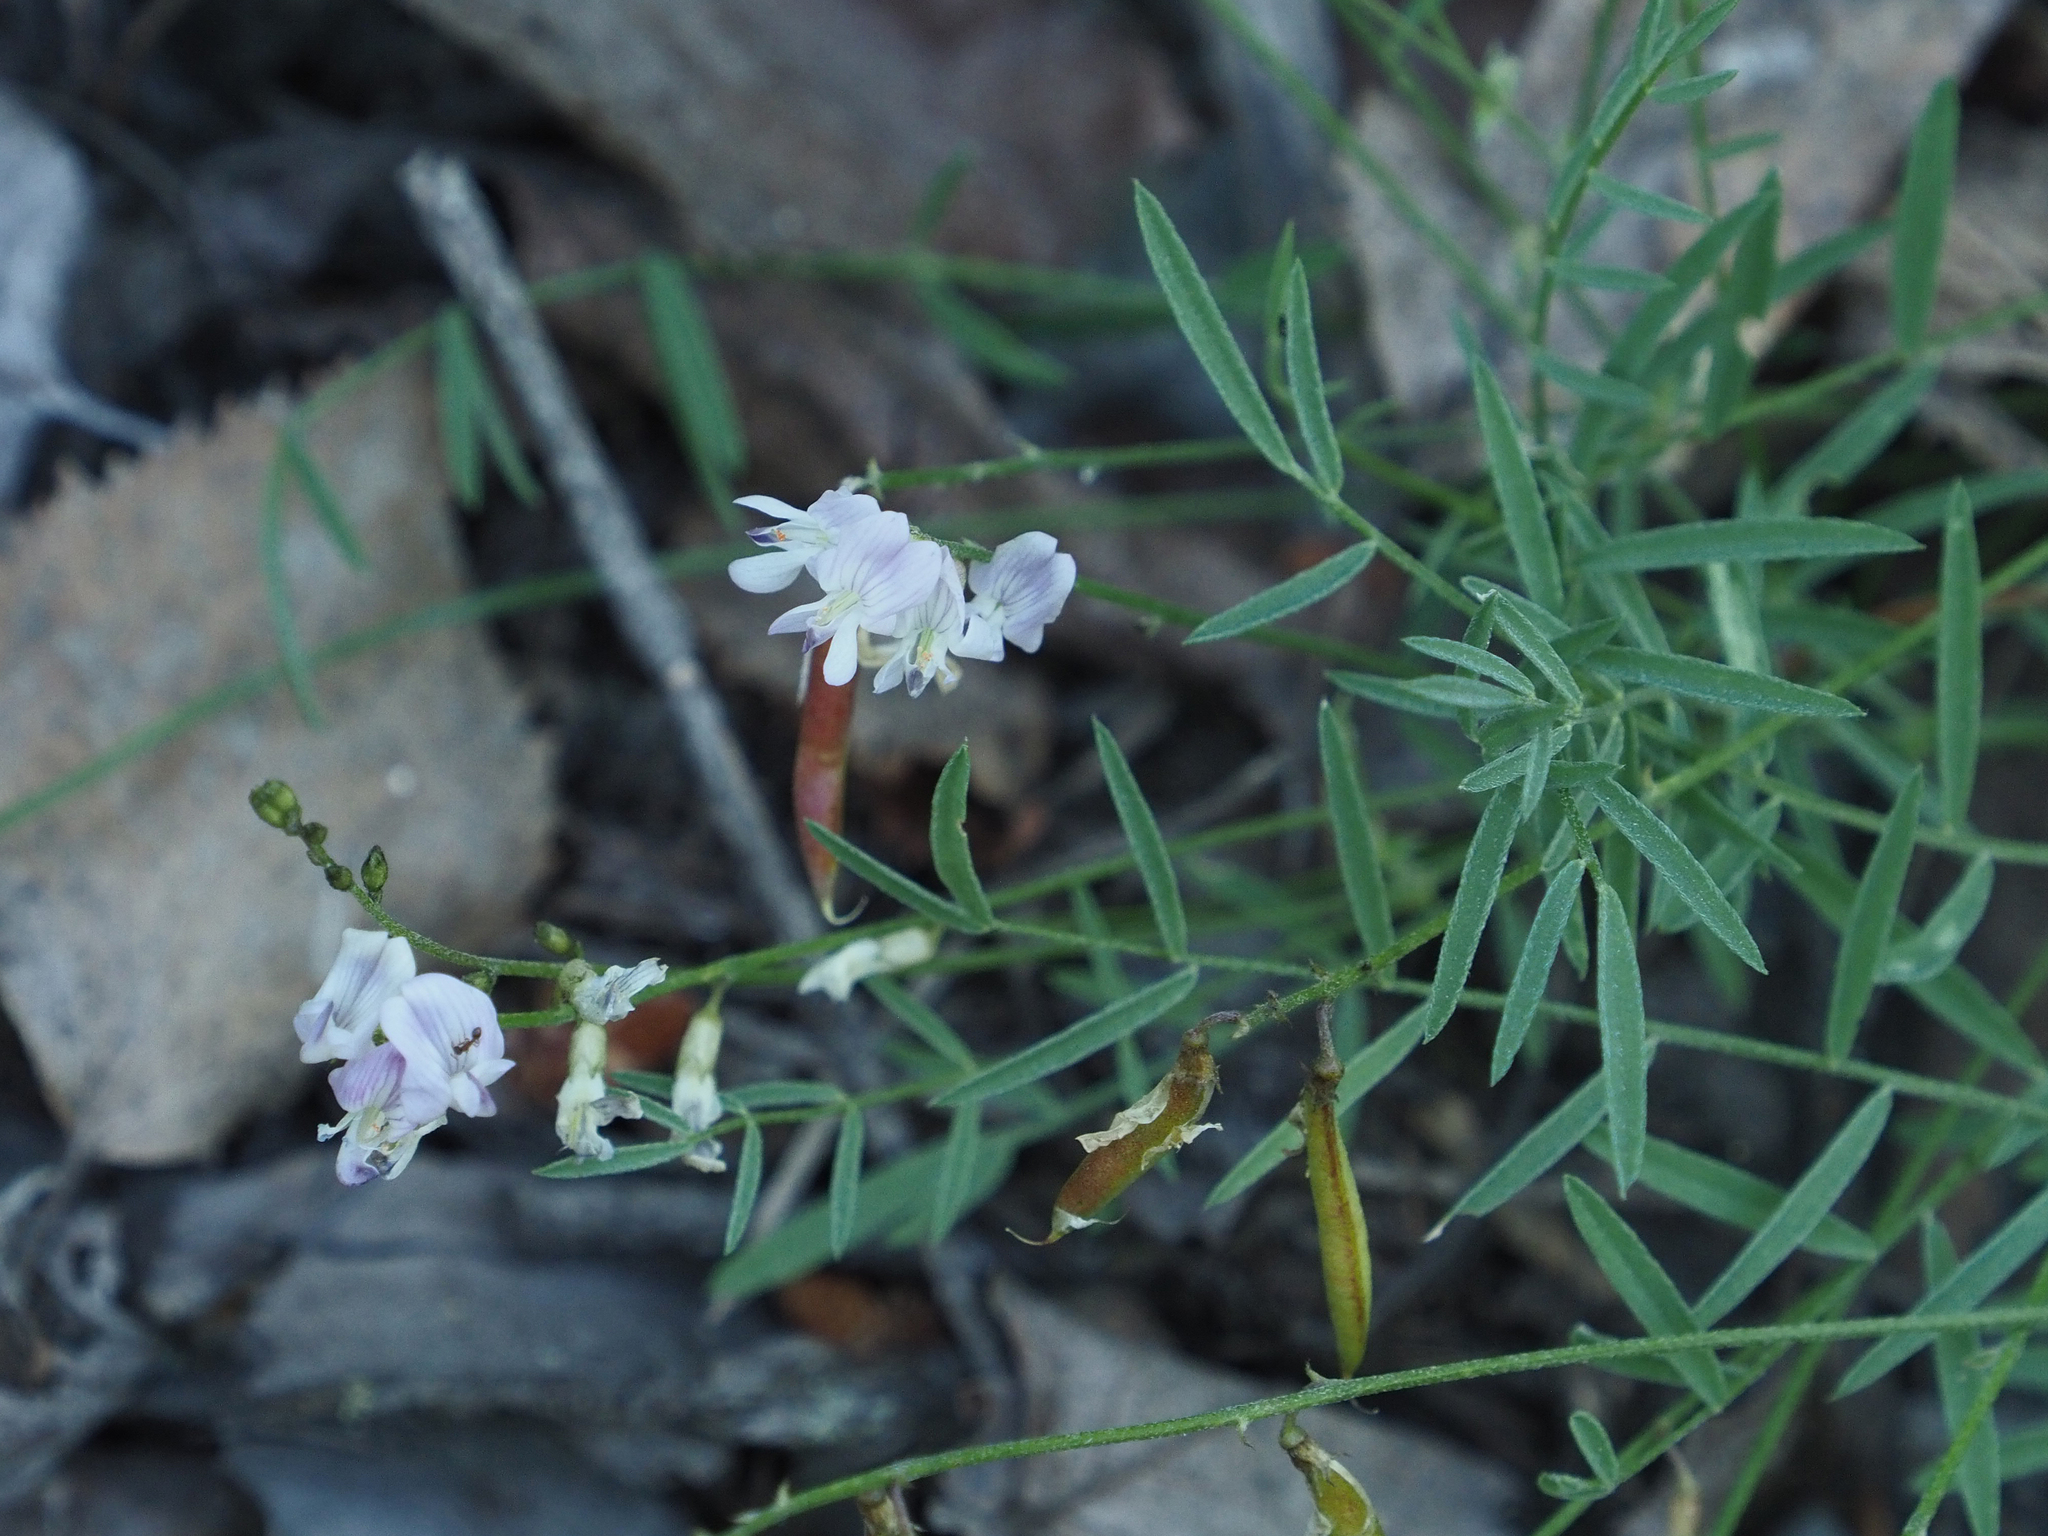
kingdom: Plantae
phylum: Tracheophyta
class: Magnoliopsida
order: Fabales
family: Fabaceae
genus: Astragalus
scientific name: Astragalus miser
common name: Timber milkvetch
